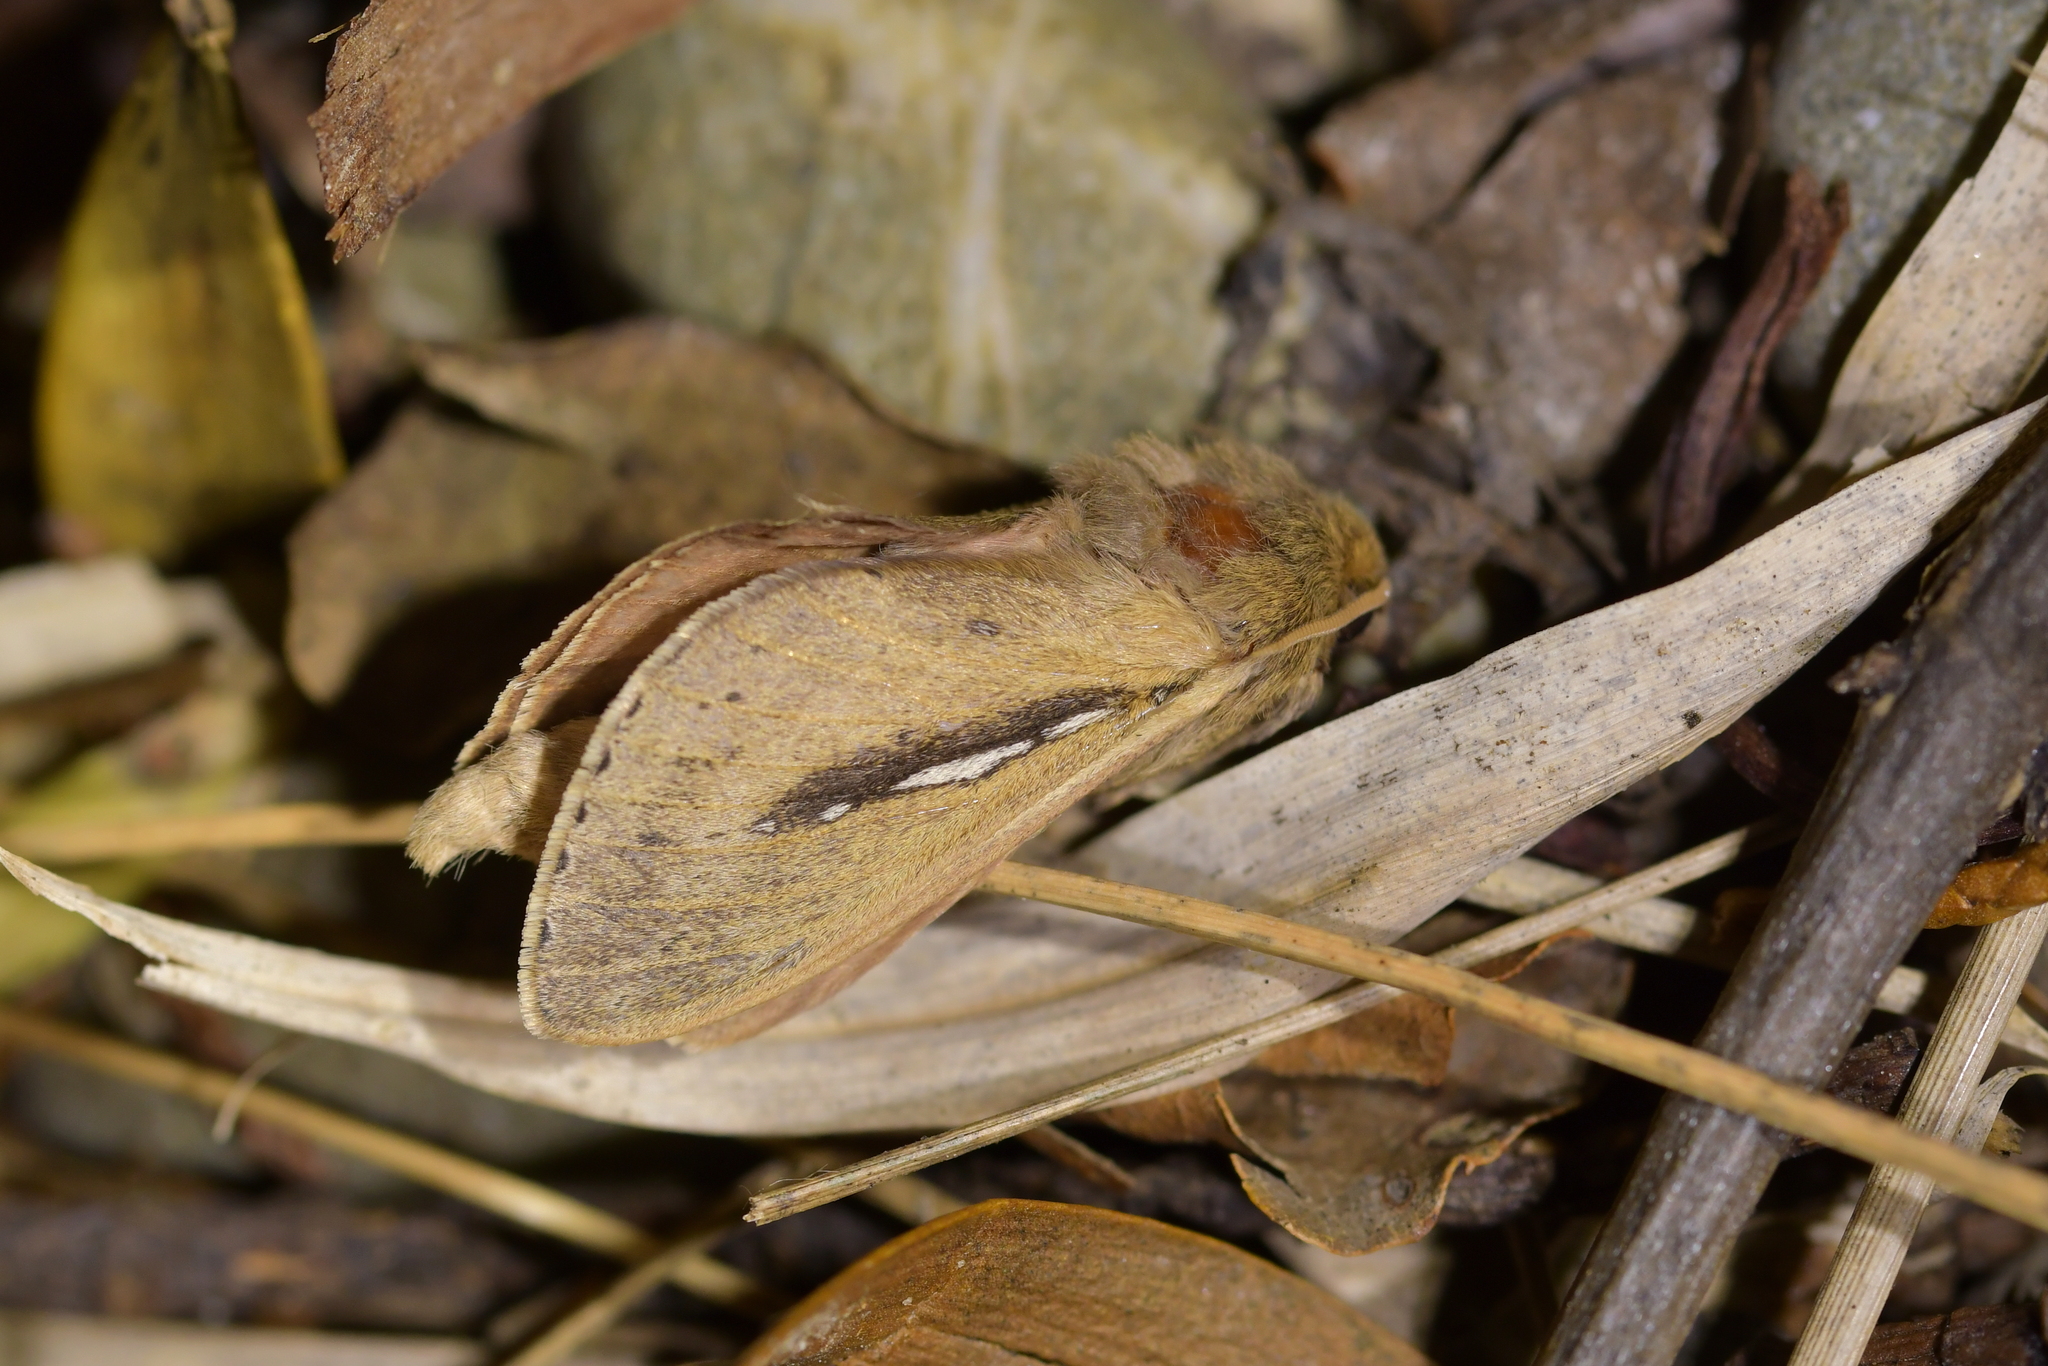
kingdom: Animalia
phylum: Arthropoda
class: Insecta
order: Lepidoptera
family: Hepialidae
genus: Wiseana
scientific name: Wiseana umbraculatus
